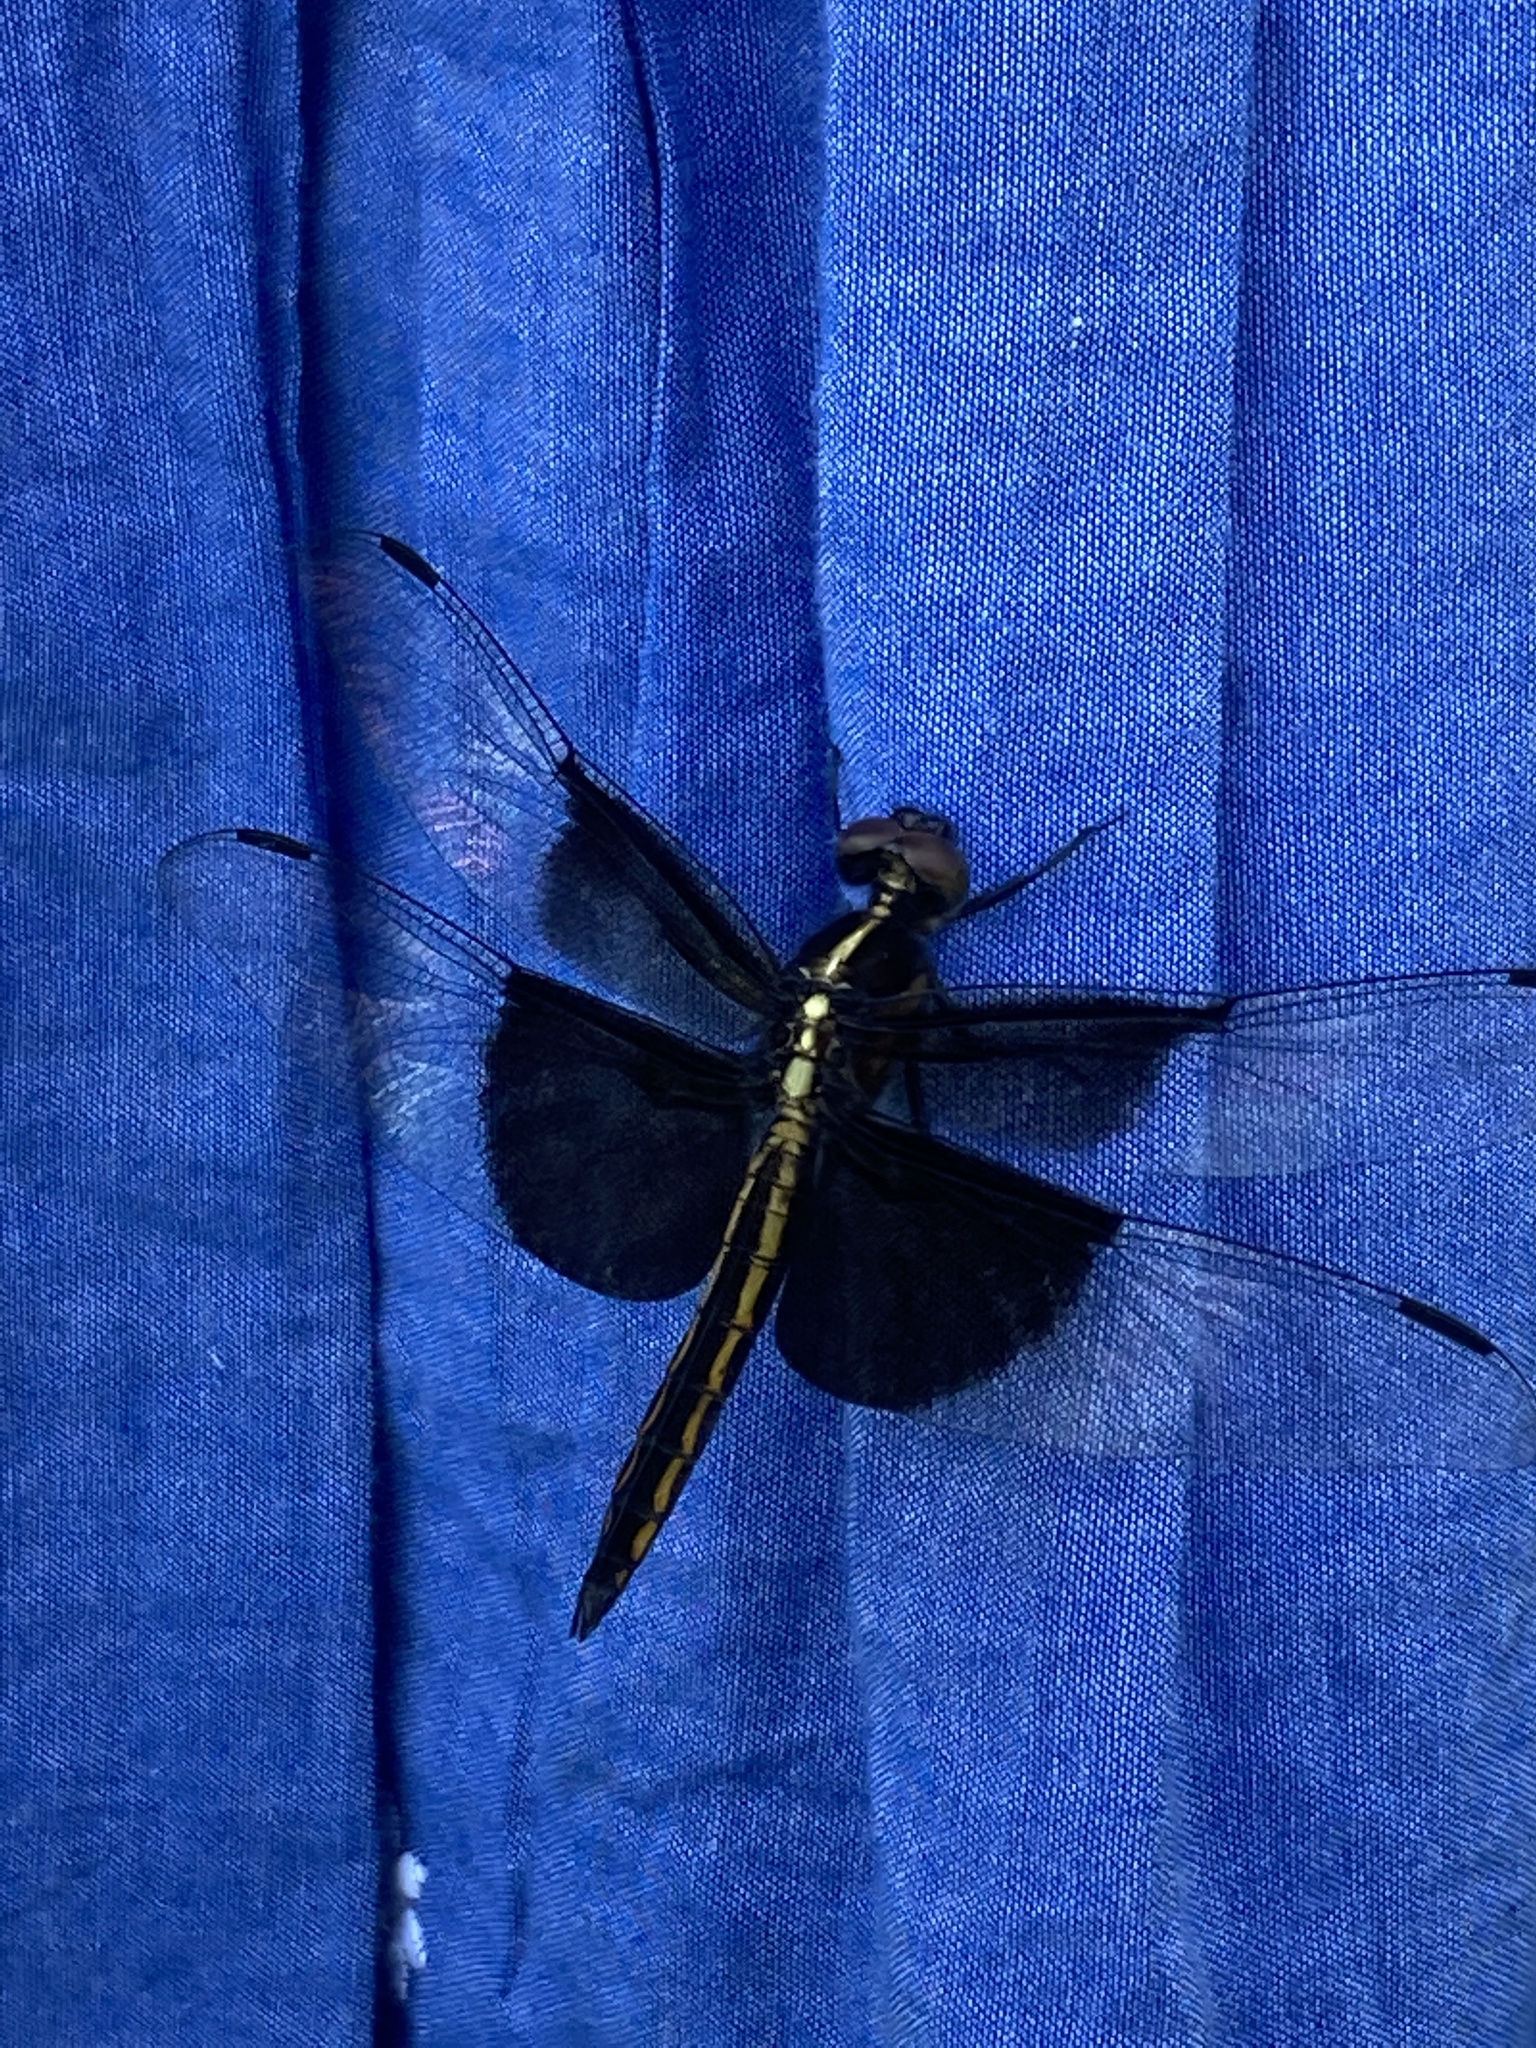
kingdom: Animalia
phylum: Arthropoda
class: Insecta
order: Odonata
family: Libellulidae
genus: Libellula
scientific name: Libellula luctuosa
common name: Widow skimmer
